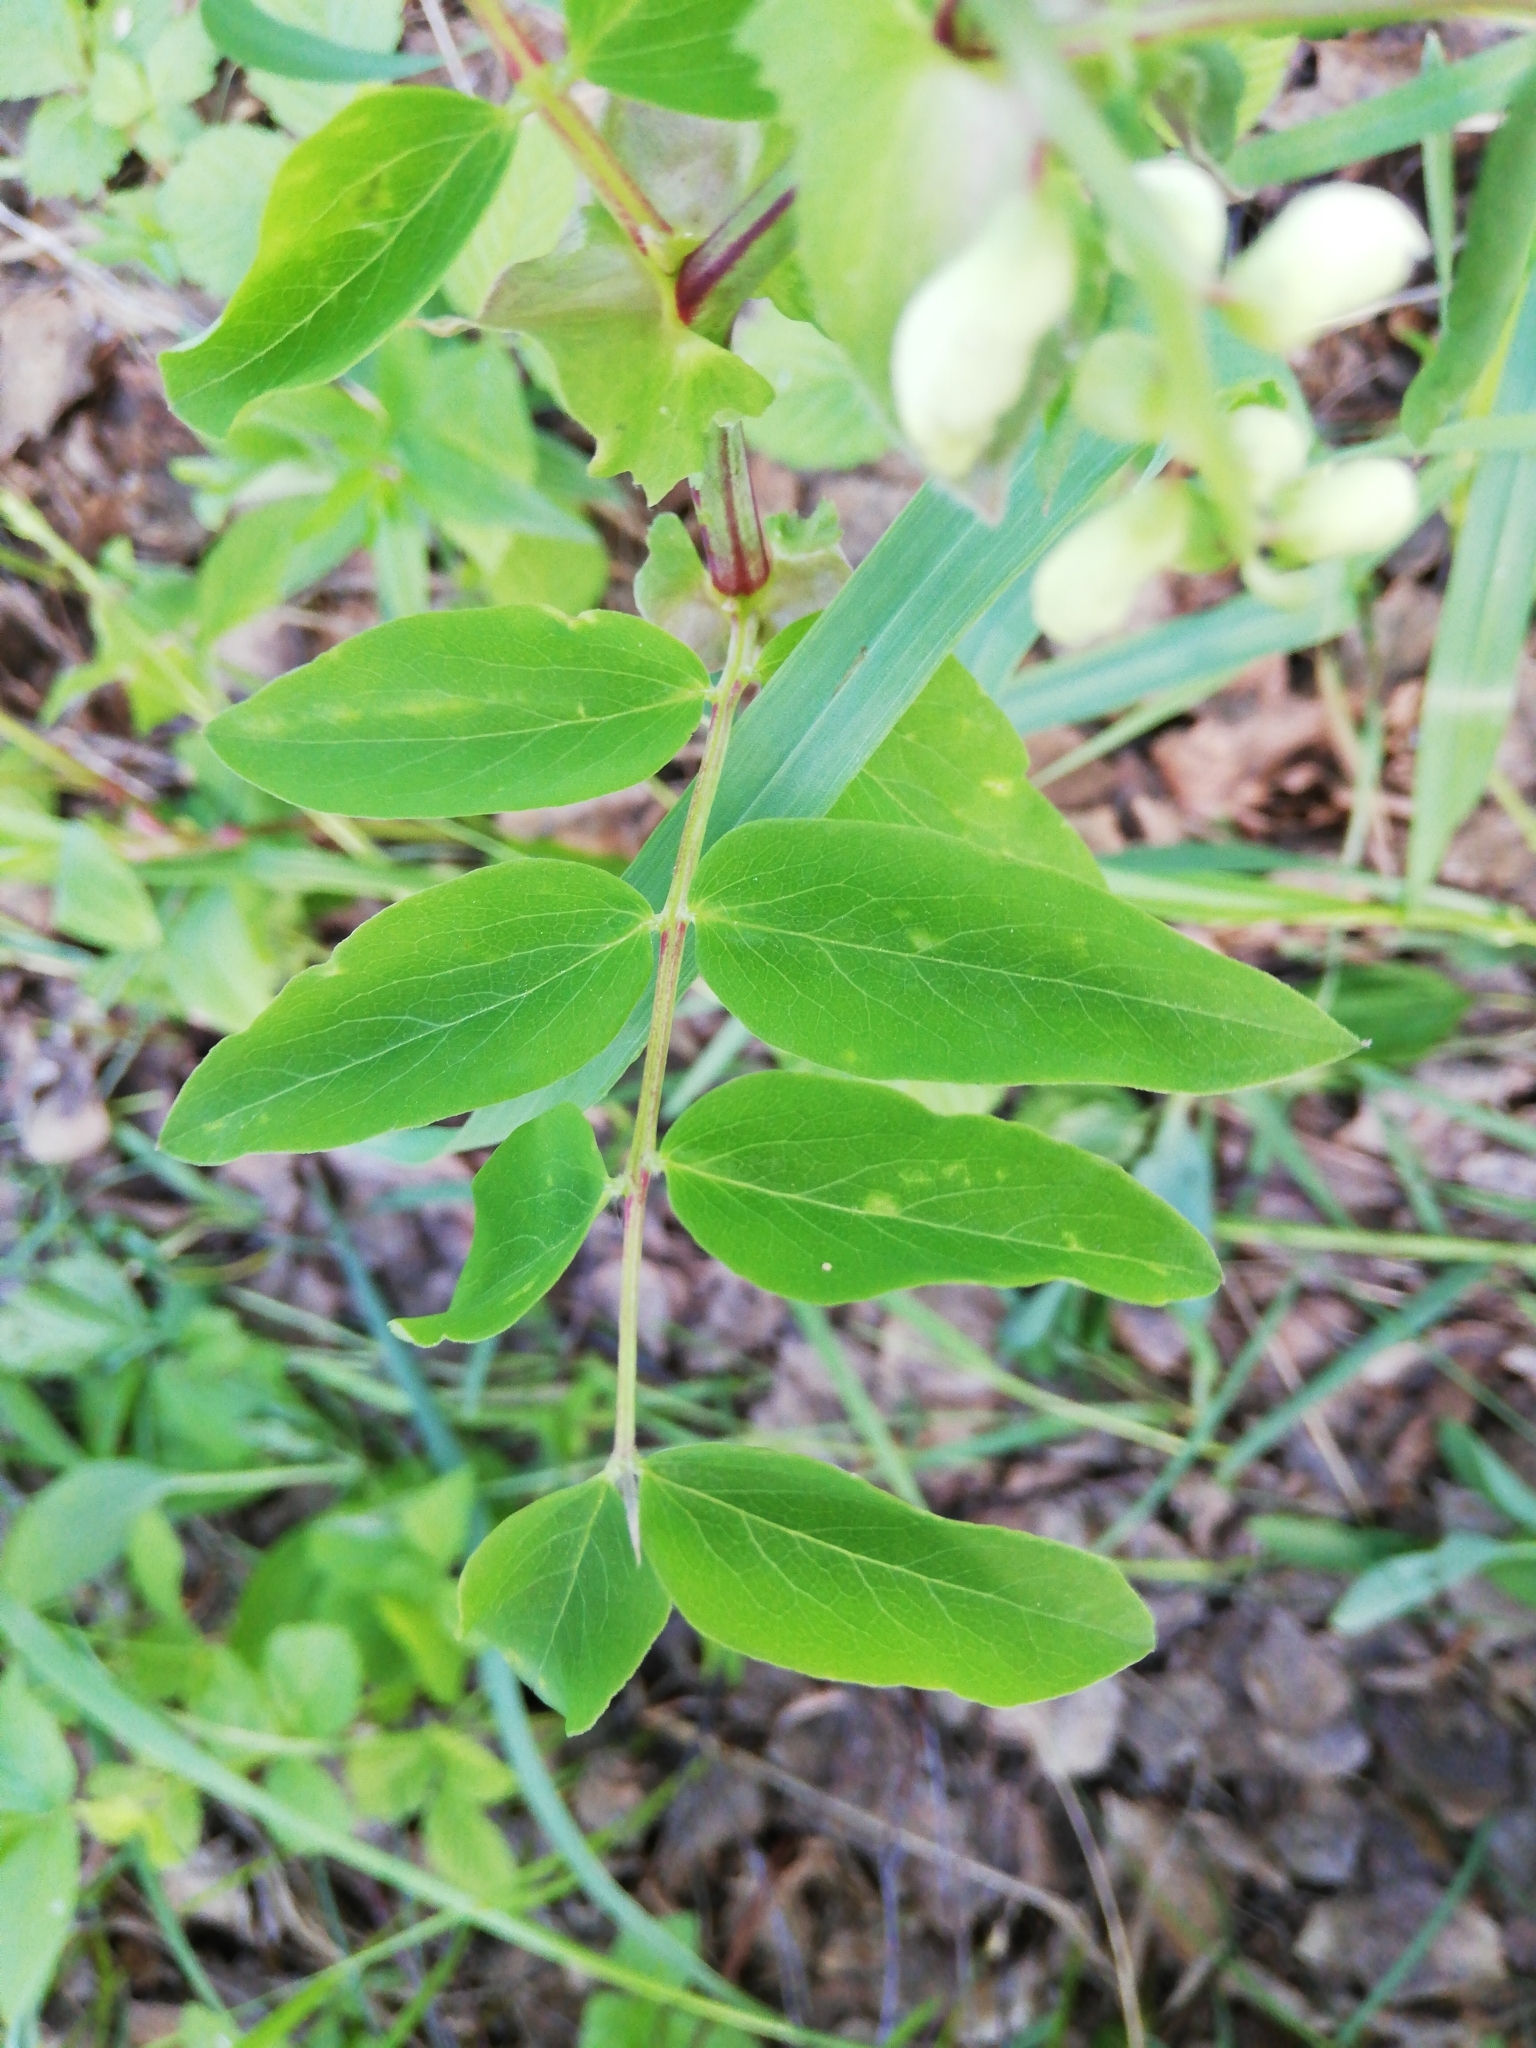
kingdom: Plantae
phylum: Tracheophyta
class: Magnoliopsida
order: Fabales
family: Fabaceae
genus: Lathyrus
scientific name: Lathyrus gmelinii
